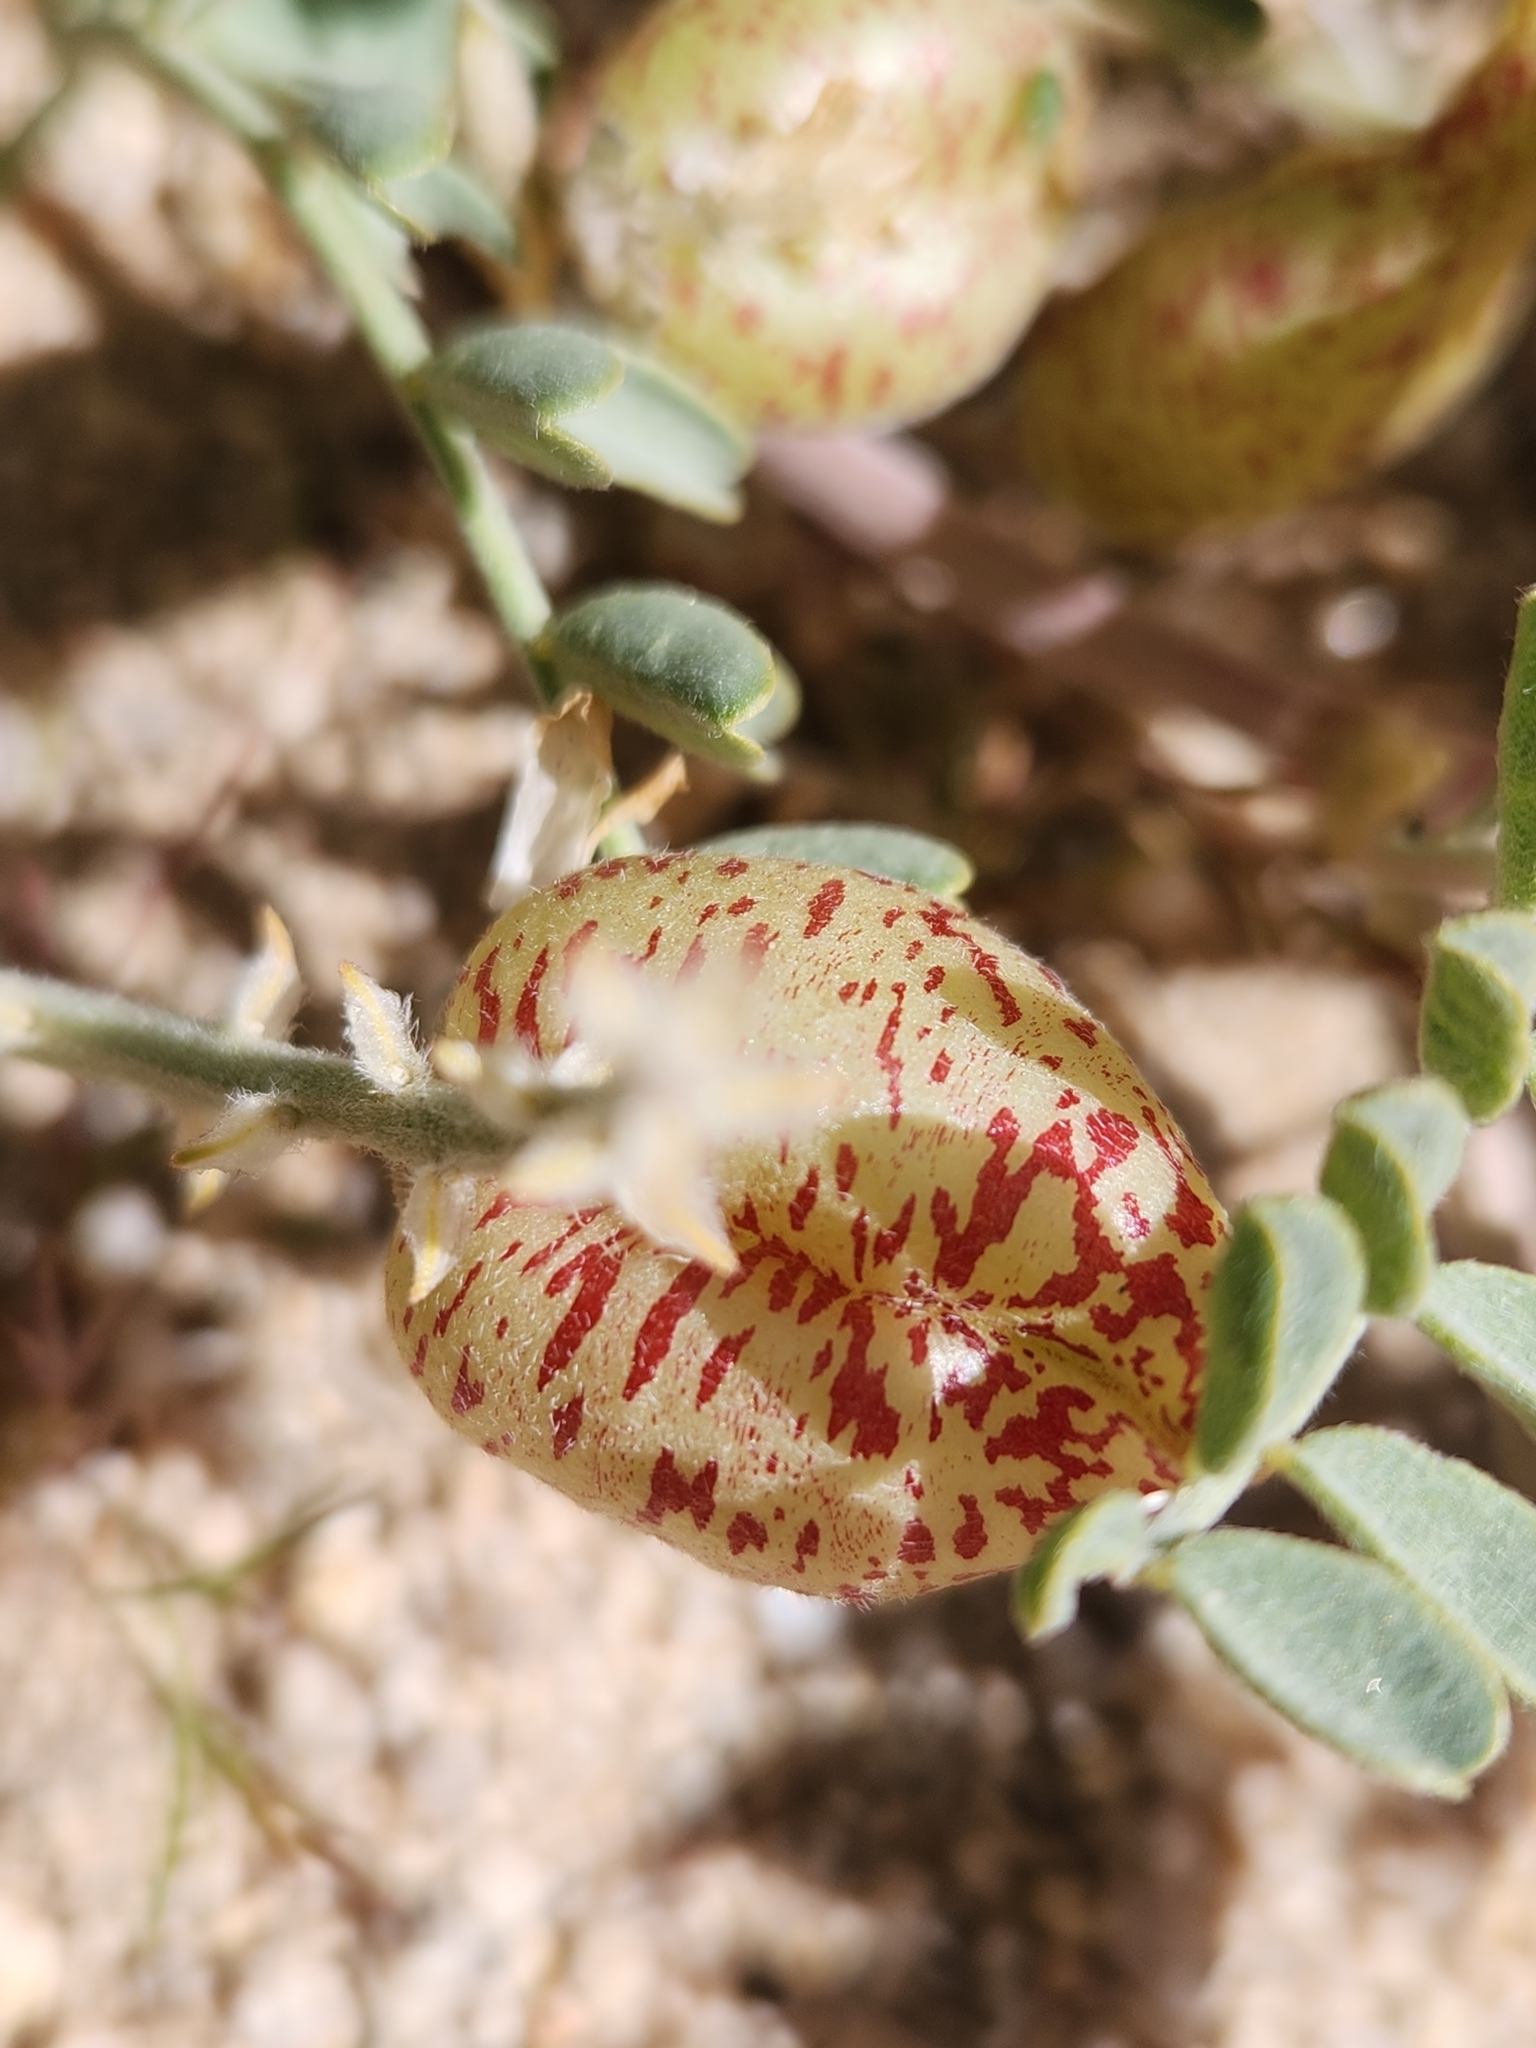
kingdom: Plantae
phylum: Tracheophyta
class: Magnoliopsida
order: Fabales
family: Fabaceae
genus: Astragalus
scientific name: Astragalus lentiginosus
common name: Freckled milkvetch
